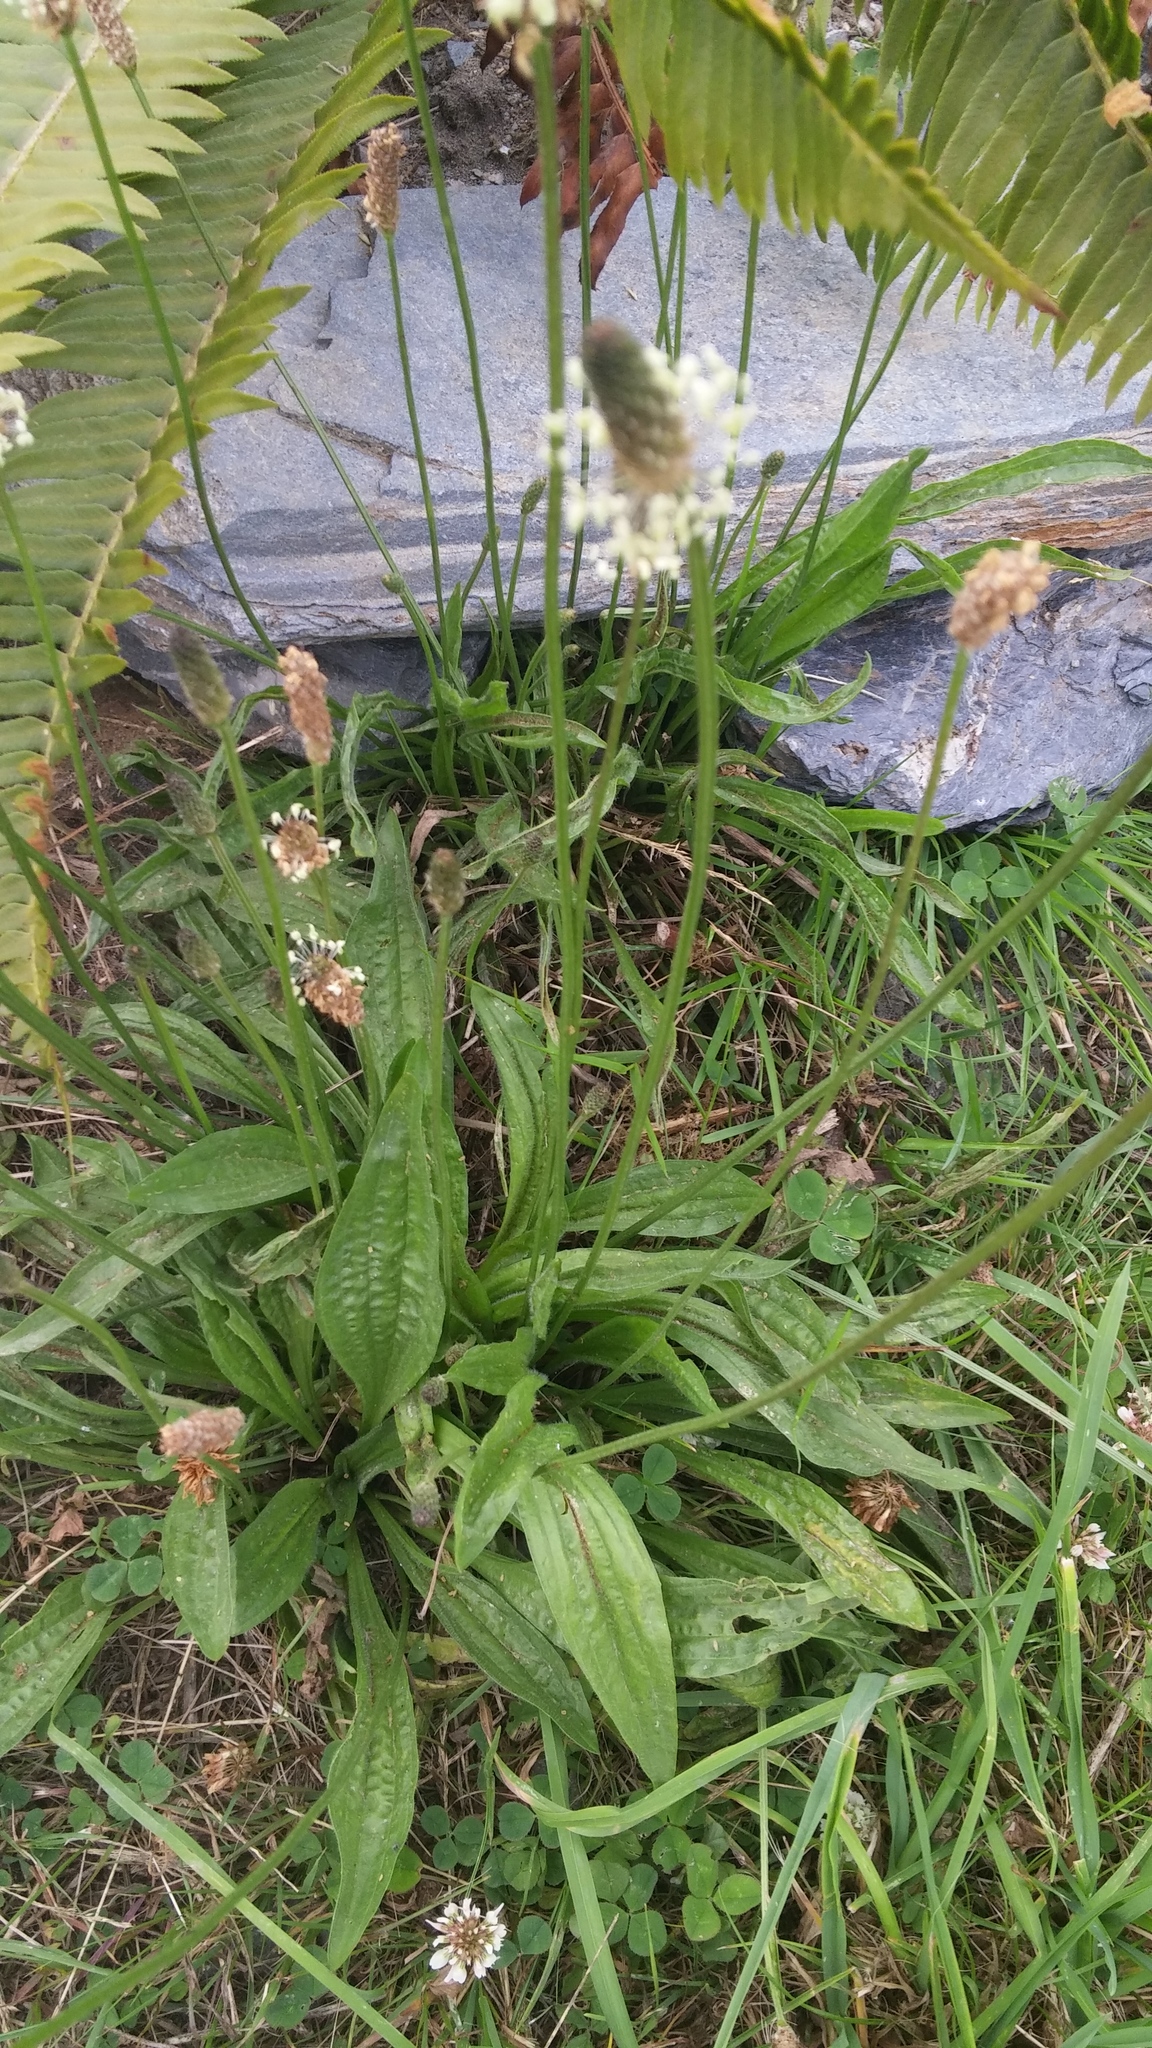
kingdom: Plantae
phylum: Tracheophyta
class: Magnoliopsida
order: Lamiales
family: Plantaginaceae
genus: Plantago
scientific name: Plantago lanceolata
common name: Ribwort plantain
